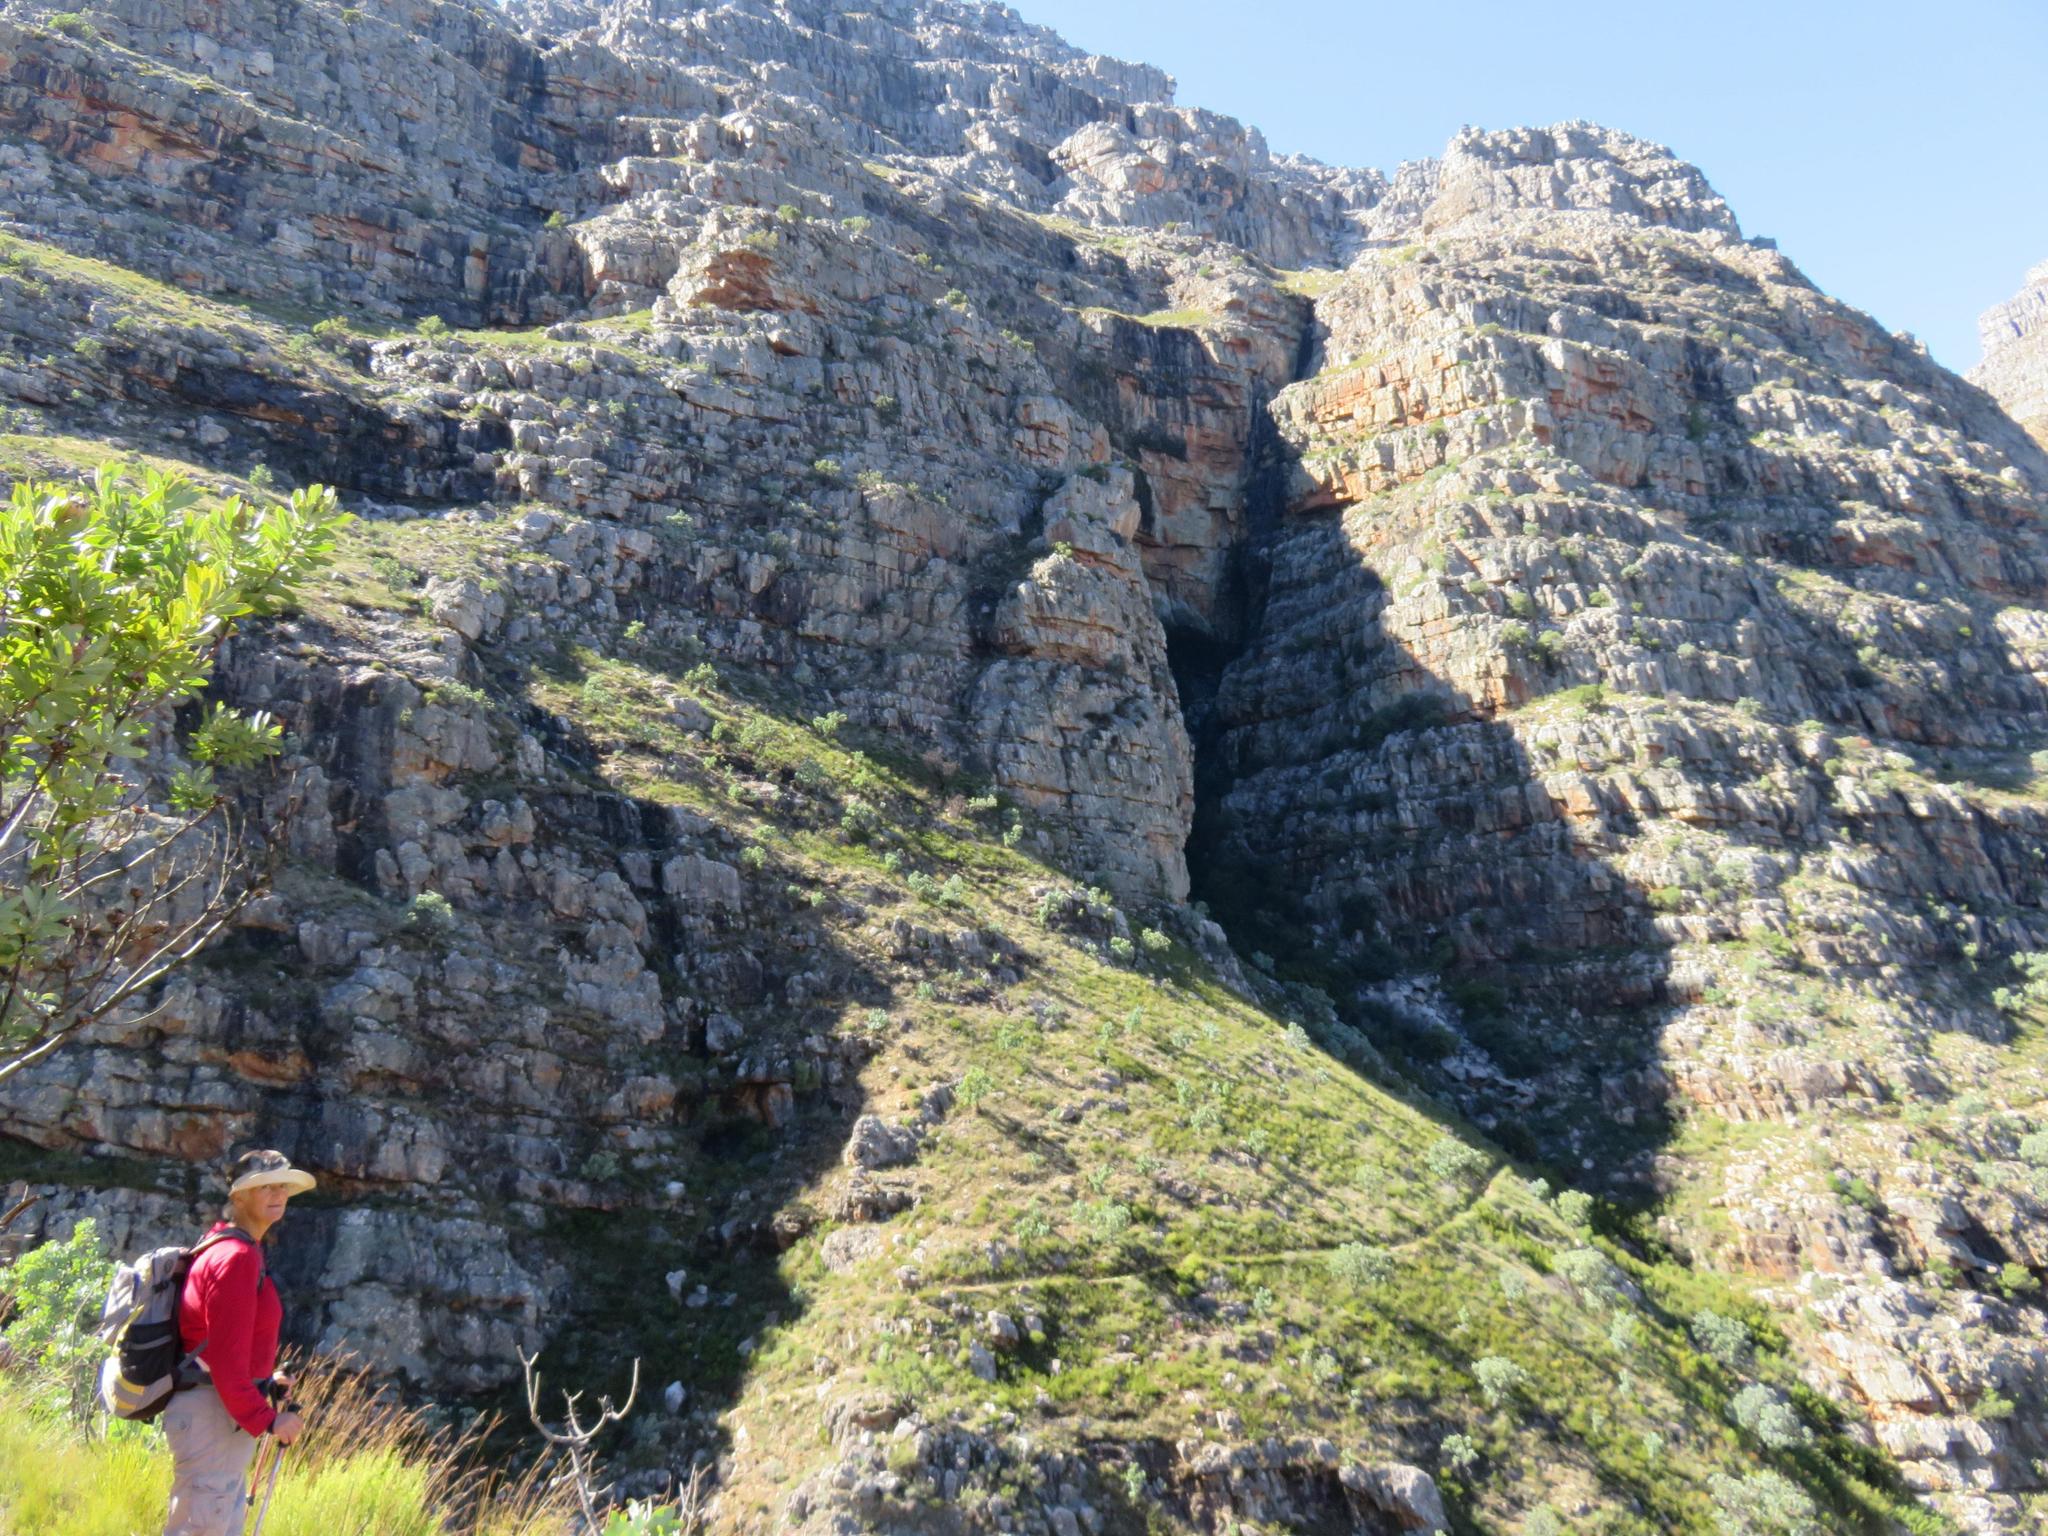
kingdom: Plantae
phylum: Tracheophyta
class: Magnoliopsida
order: Proteales
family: Proteaceae
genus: Protea
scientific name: Protea nitida
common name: Tree protea
